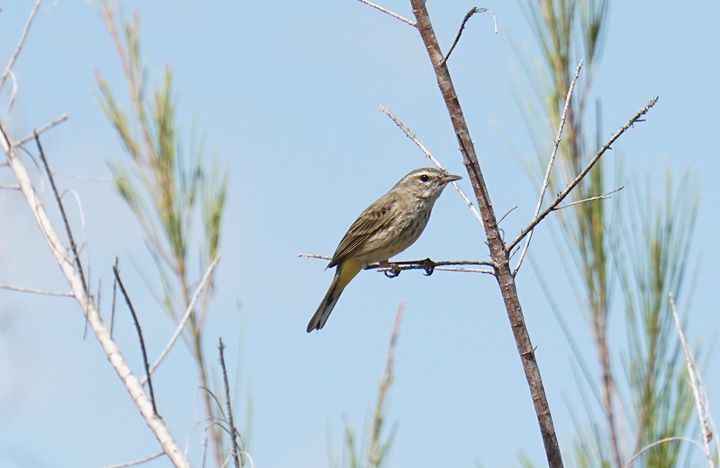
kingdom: Animalia
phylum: Chordata
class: Aves
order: Passeriformes
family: Parulidae
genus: Setophaga
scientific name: Setophaga palmarum
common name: Palm warbler
